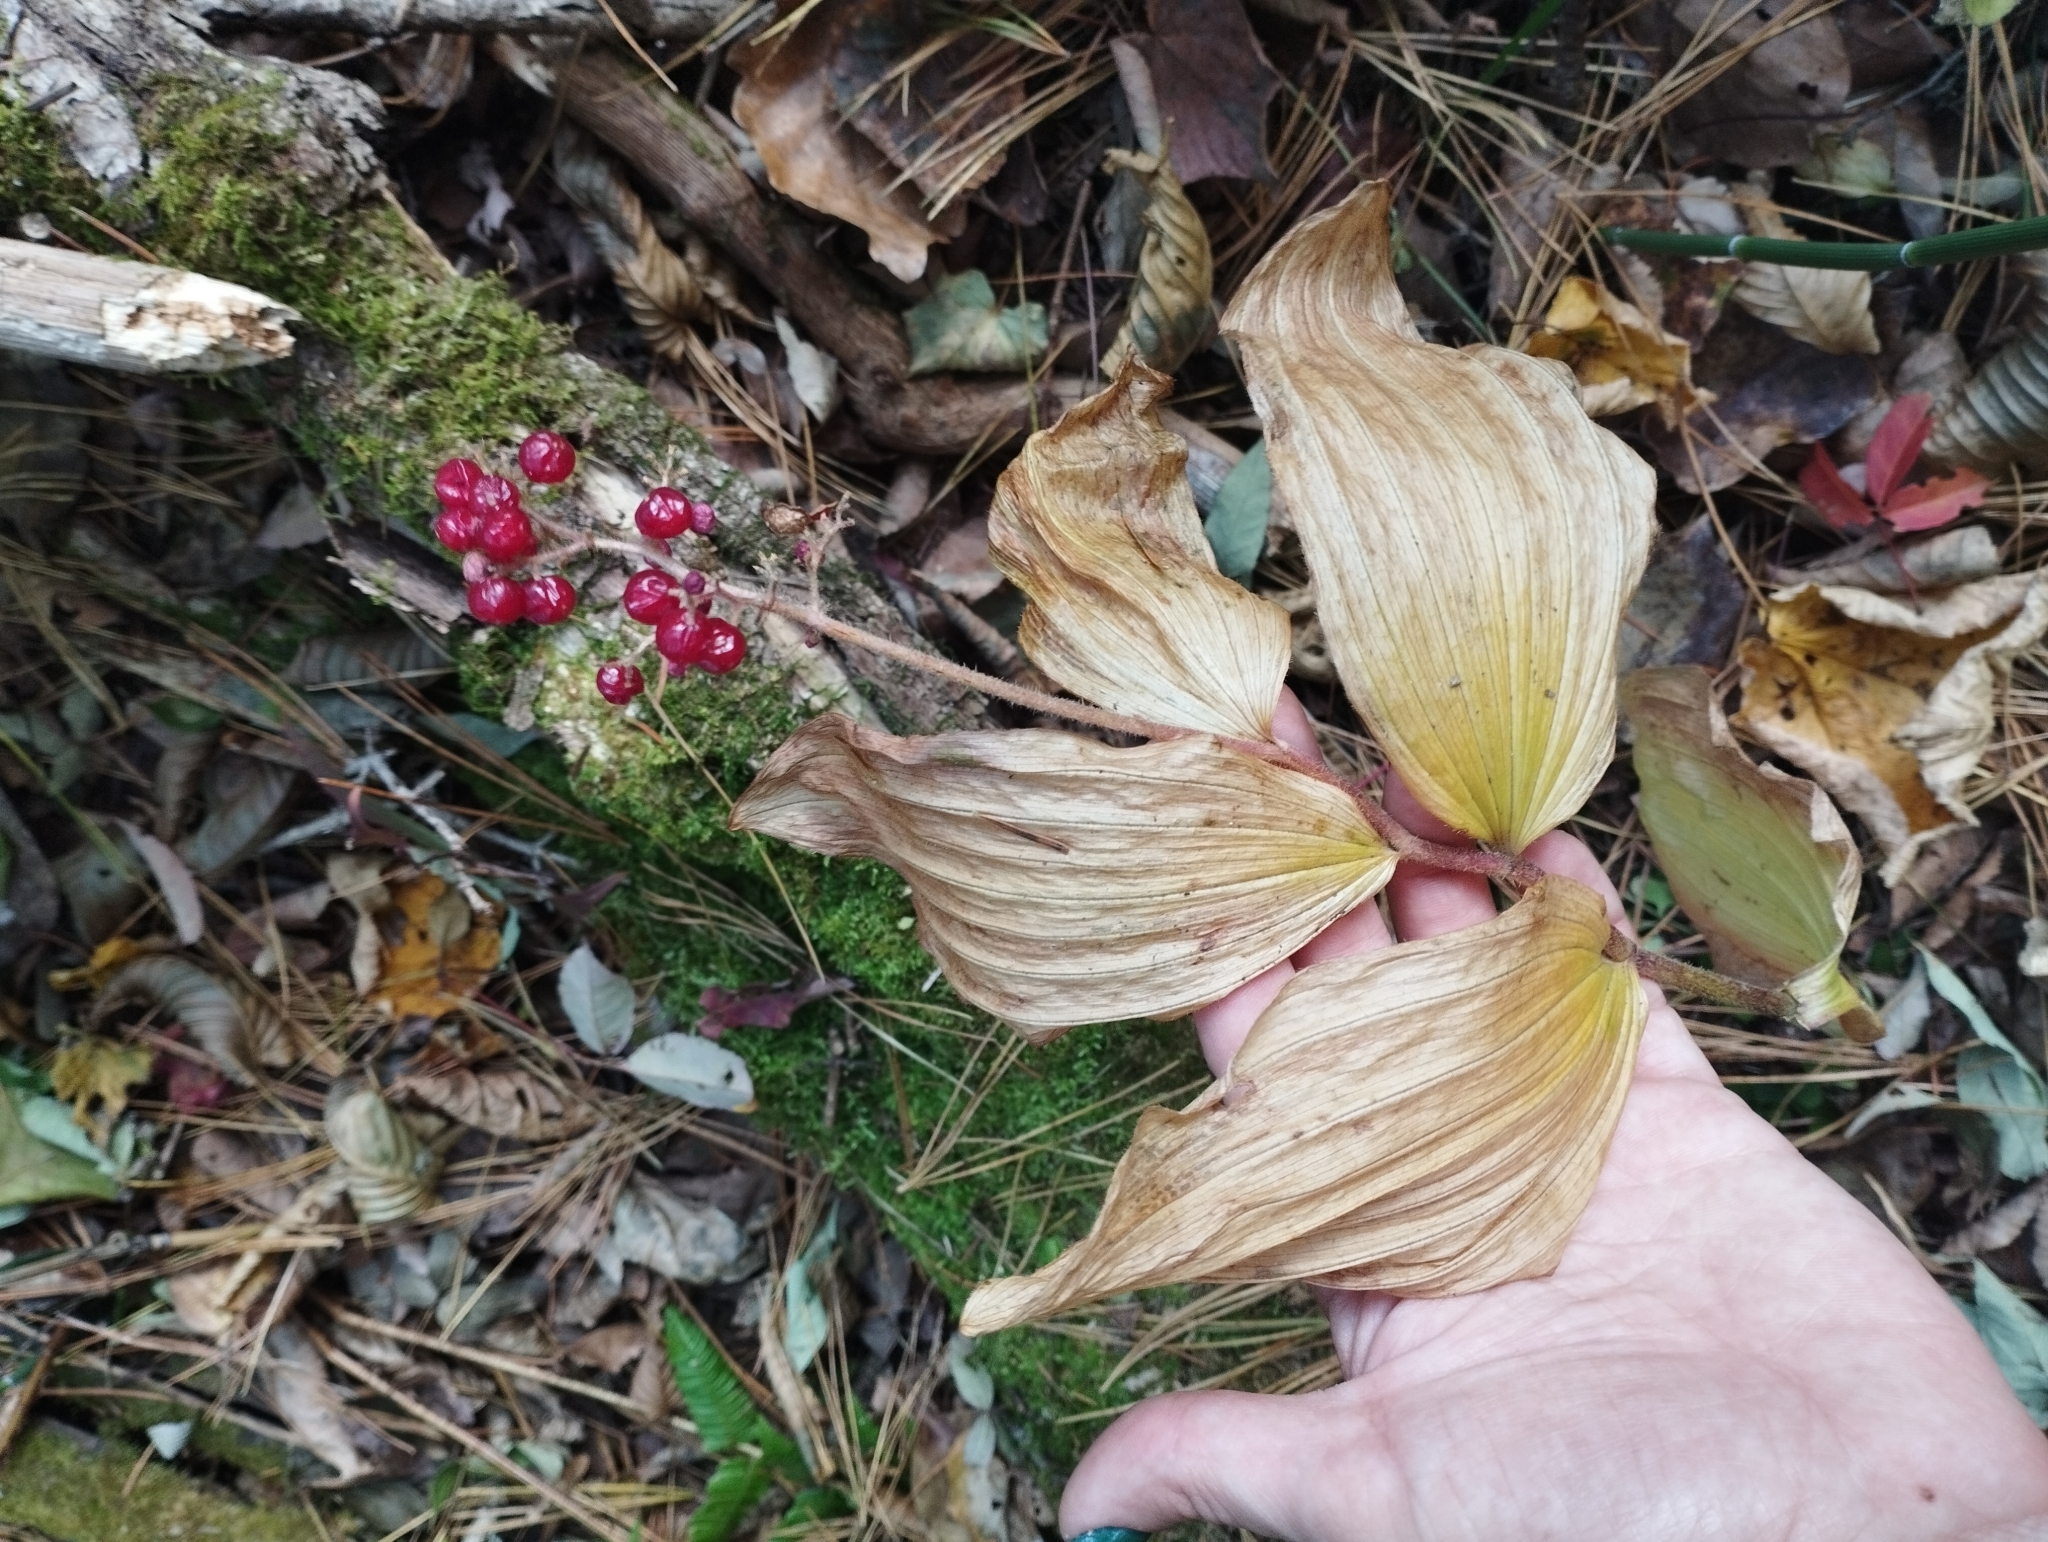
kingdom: Plantae
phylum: Tracheophyta
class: Liliopsida
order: Asparagales
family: Asparagaceae
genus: Maianthemum
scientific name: Maianthemum japonicum
